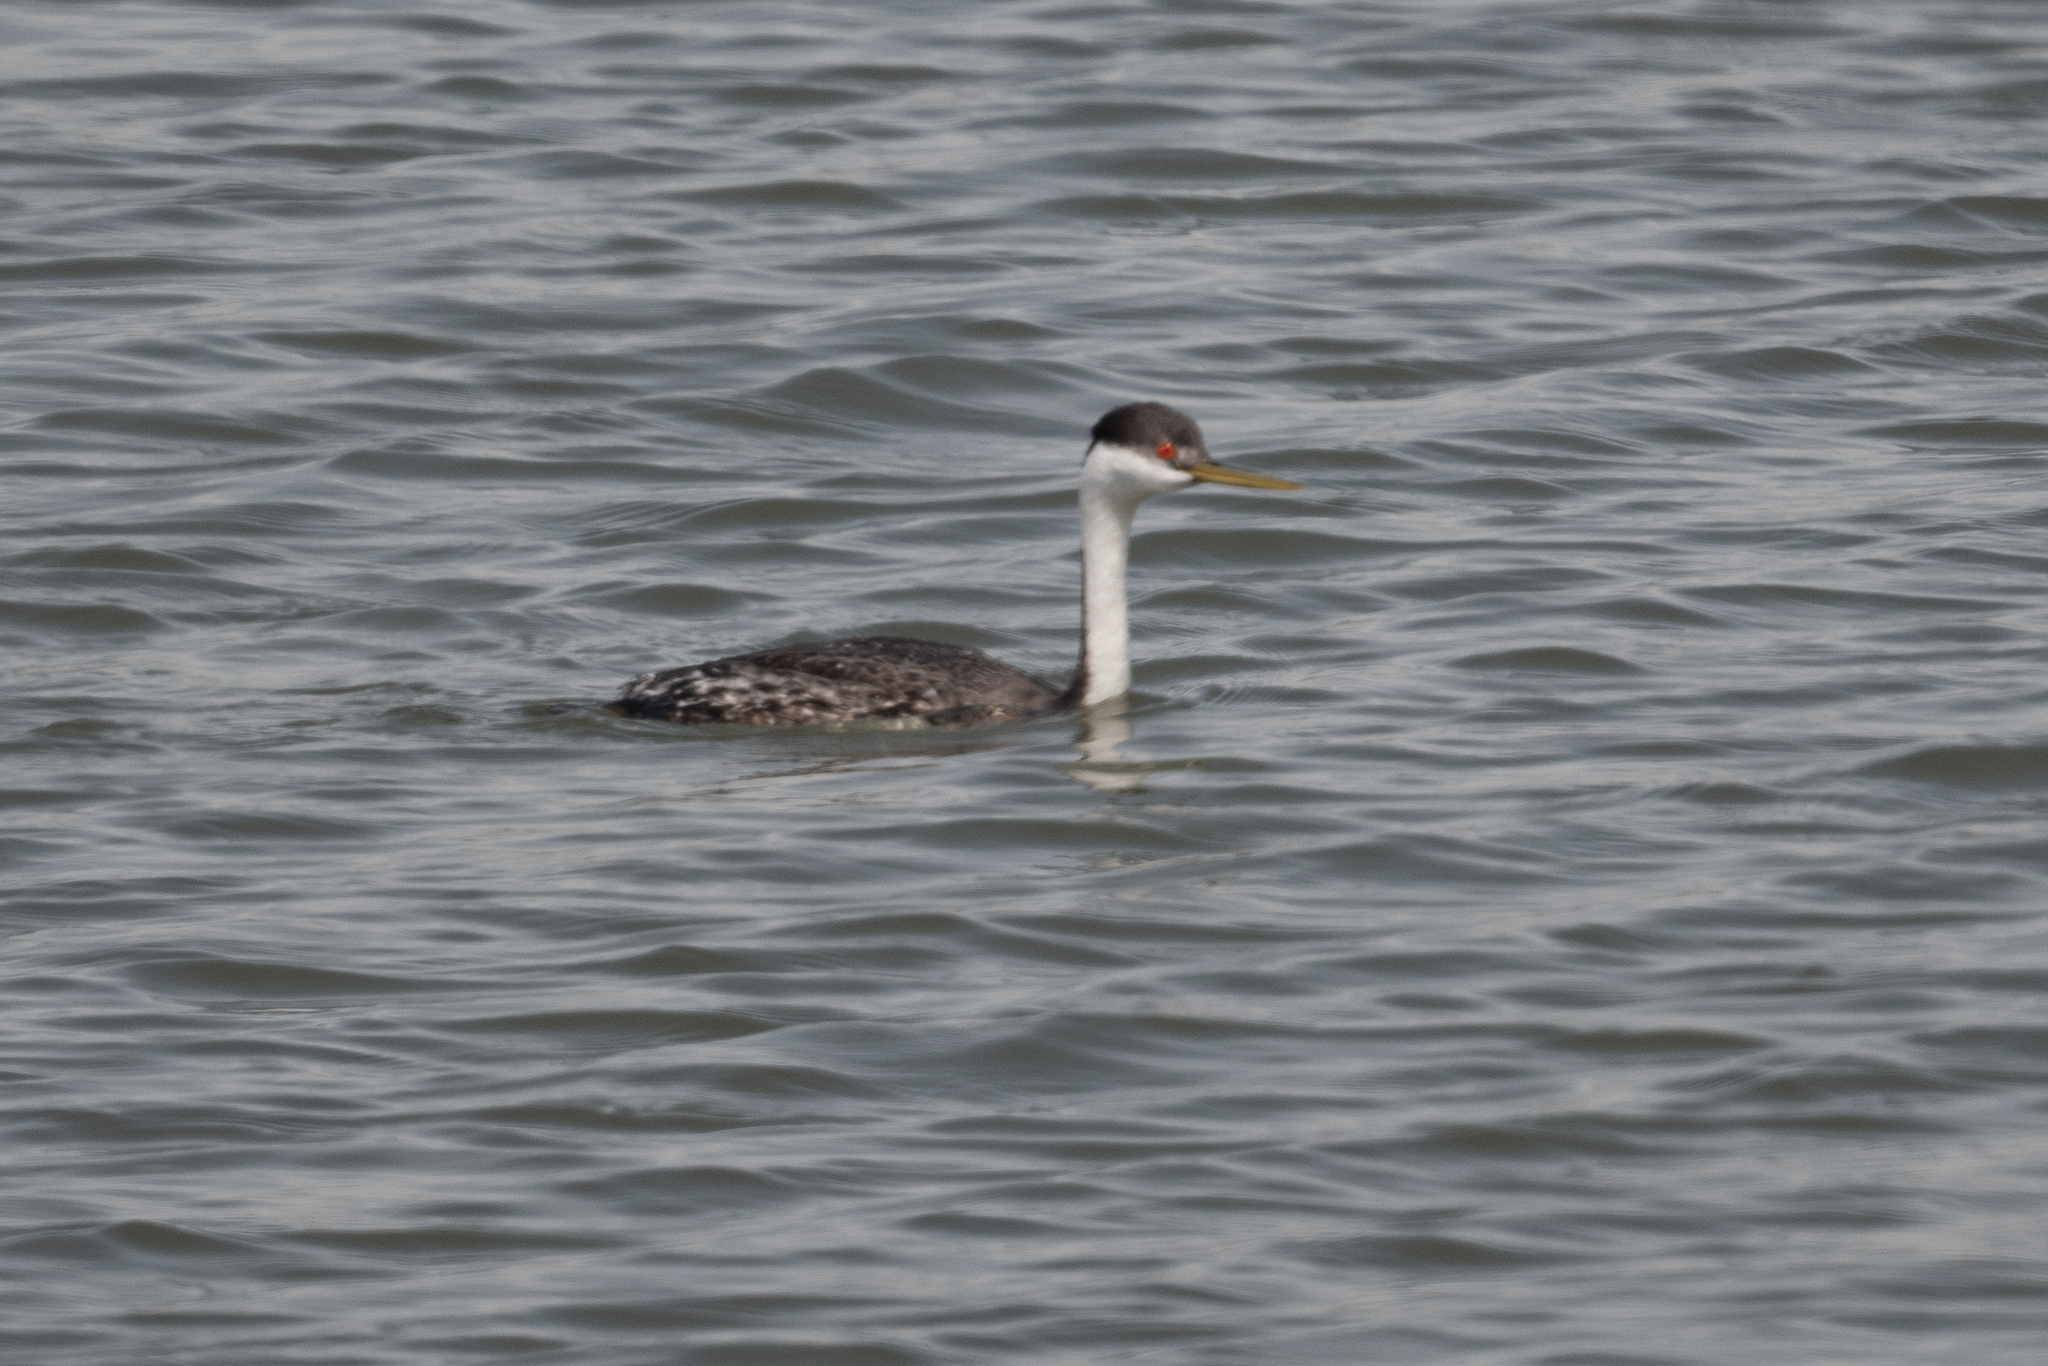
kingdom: Animalia
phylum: Chordata
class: Aves
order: Podicipediformes
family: Podicipedidae
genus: Aechmophorus
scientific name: Aechmophorus occidentalis
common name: Western grebe
